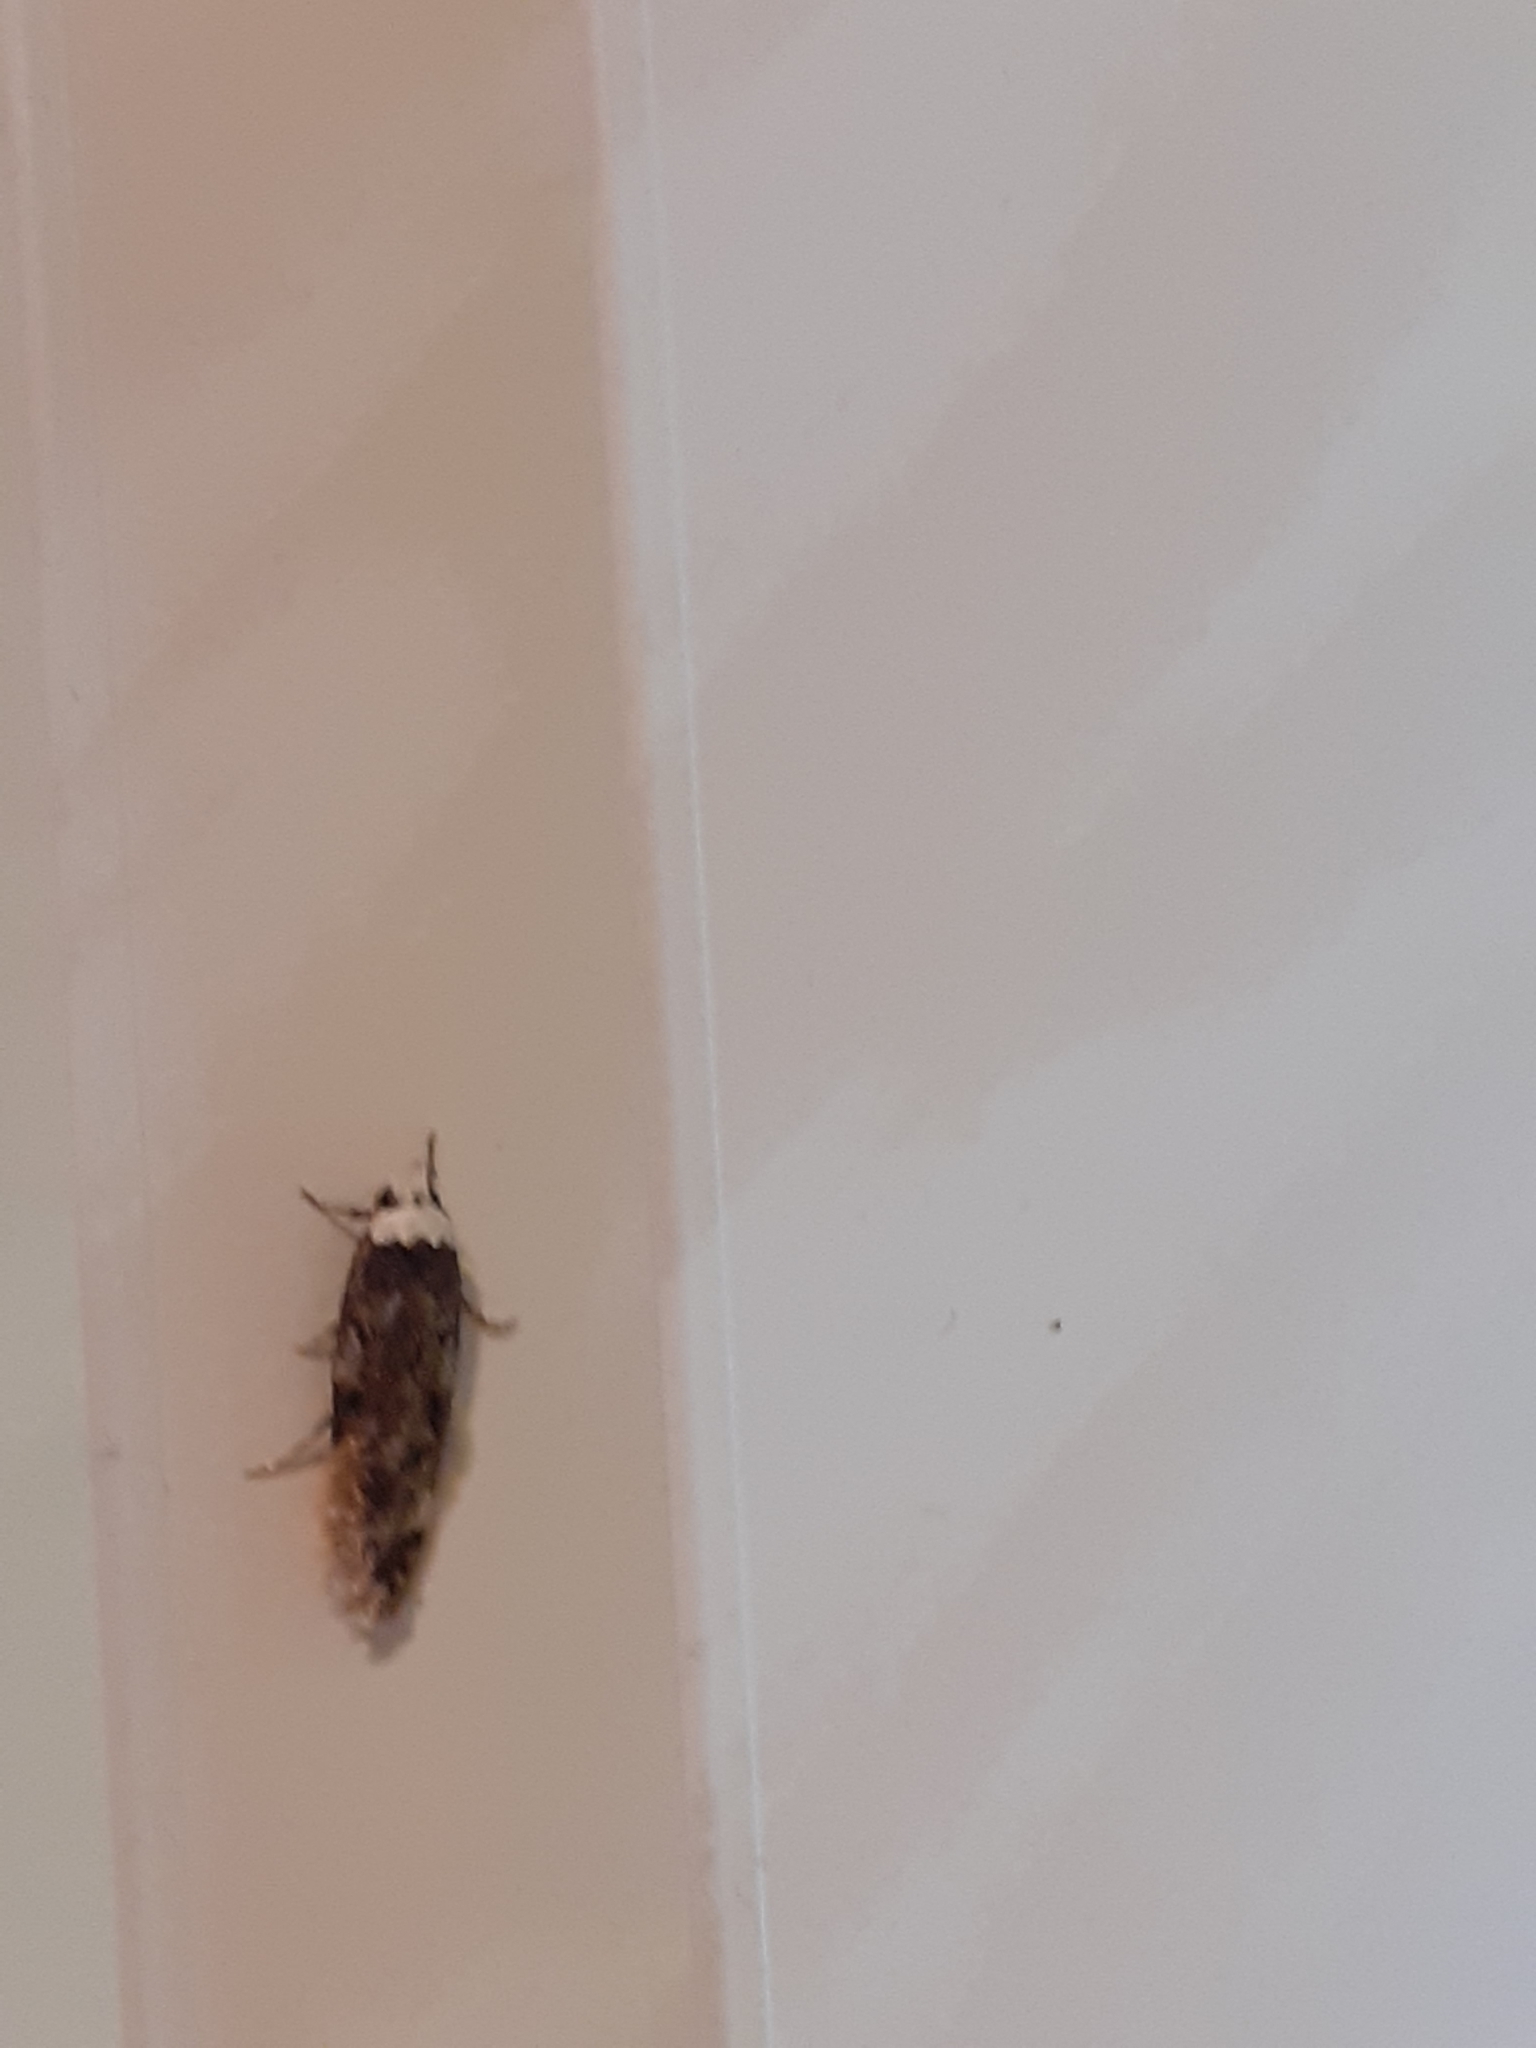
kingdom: Animalia
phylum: Arthropoda
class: Insecta
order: Lepidoptera
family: Oecophoridae
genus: Endrosis
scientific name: Endrosis sarcitrella
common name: White-shouldered house moth
